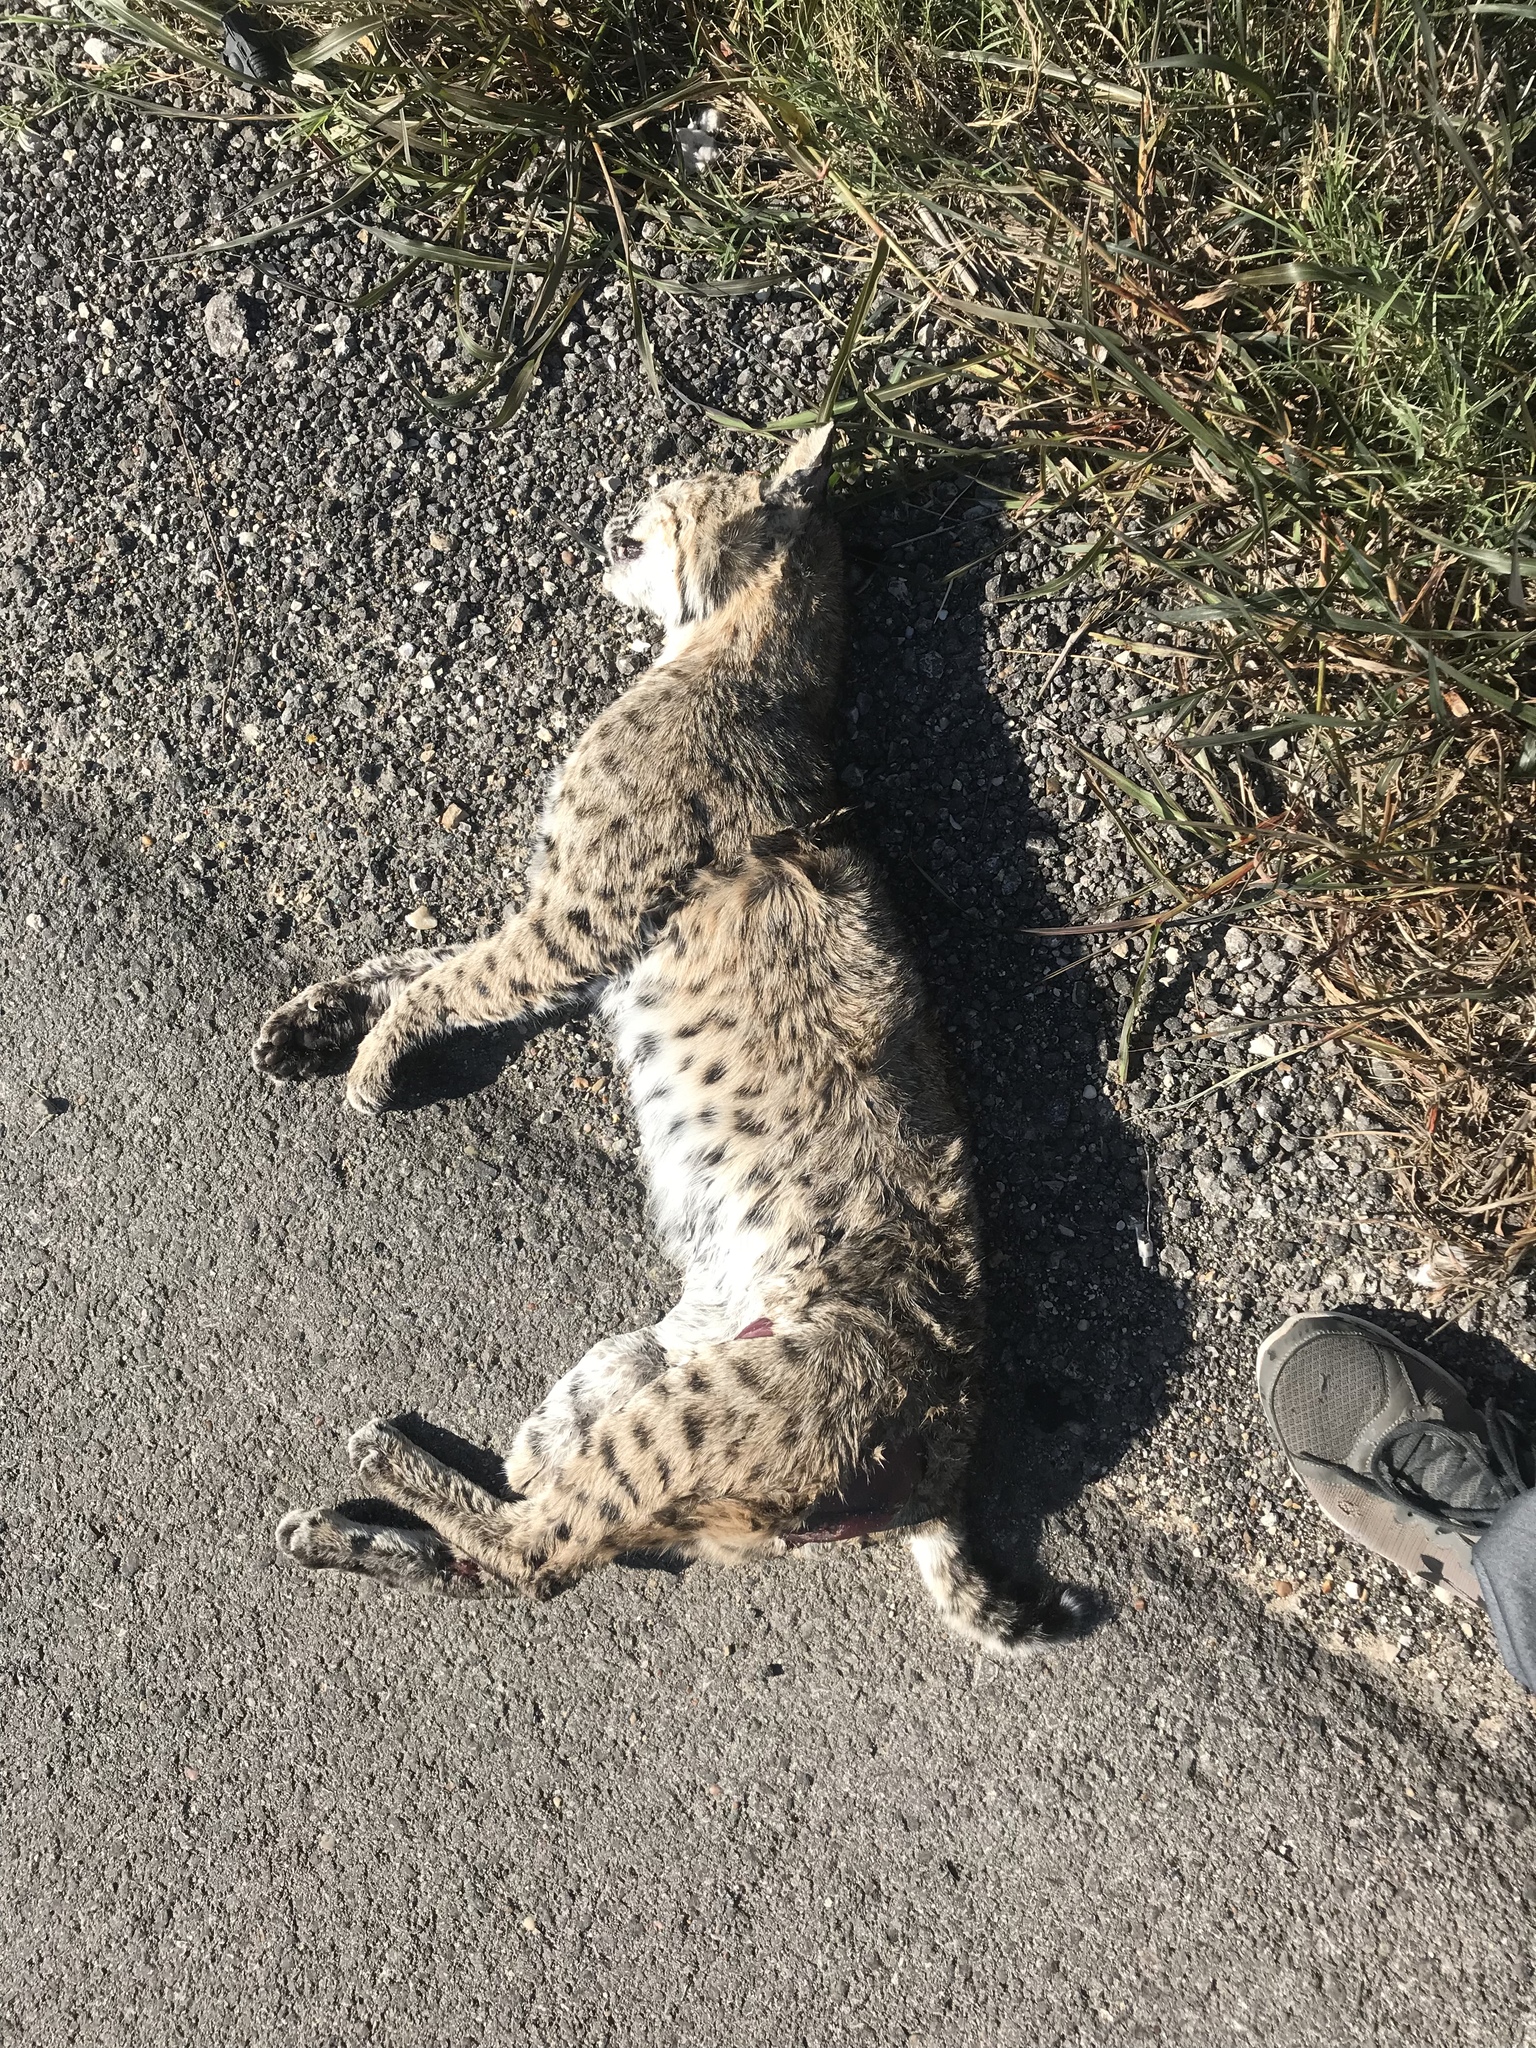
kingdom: Animalia
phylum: Chordata
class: Mammalia
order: Carnivora
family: Felidae
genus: Lynx
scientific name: Lynx rufus
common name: Bobcat
